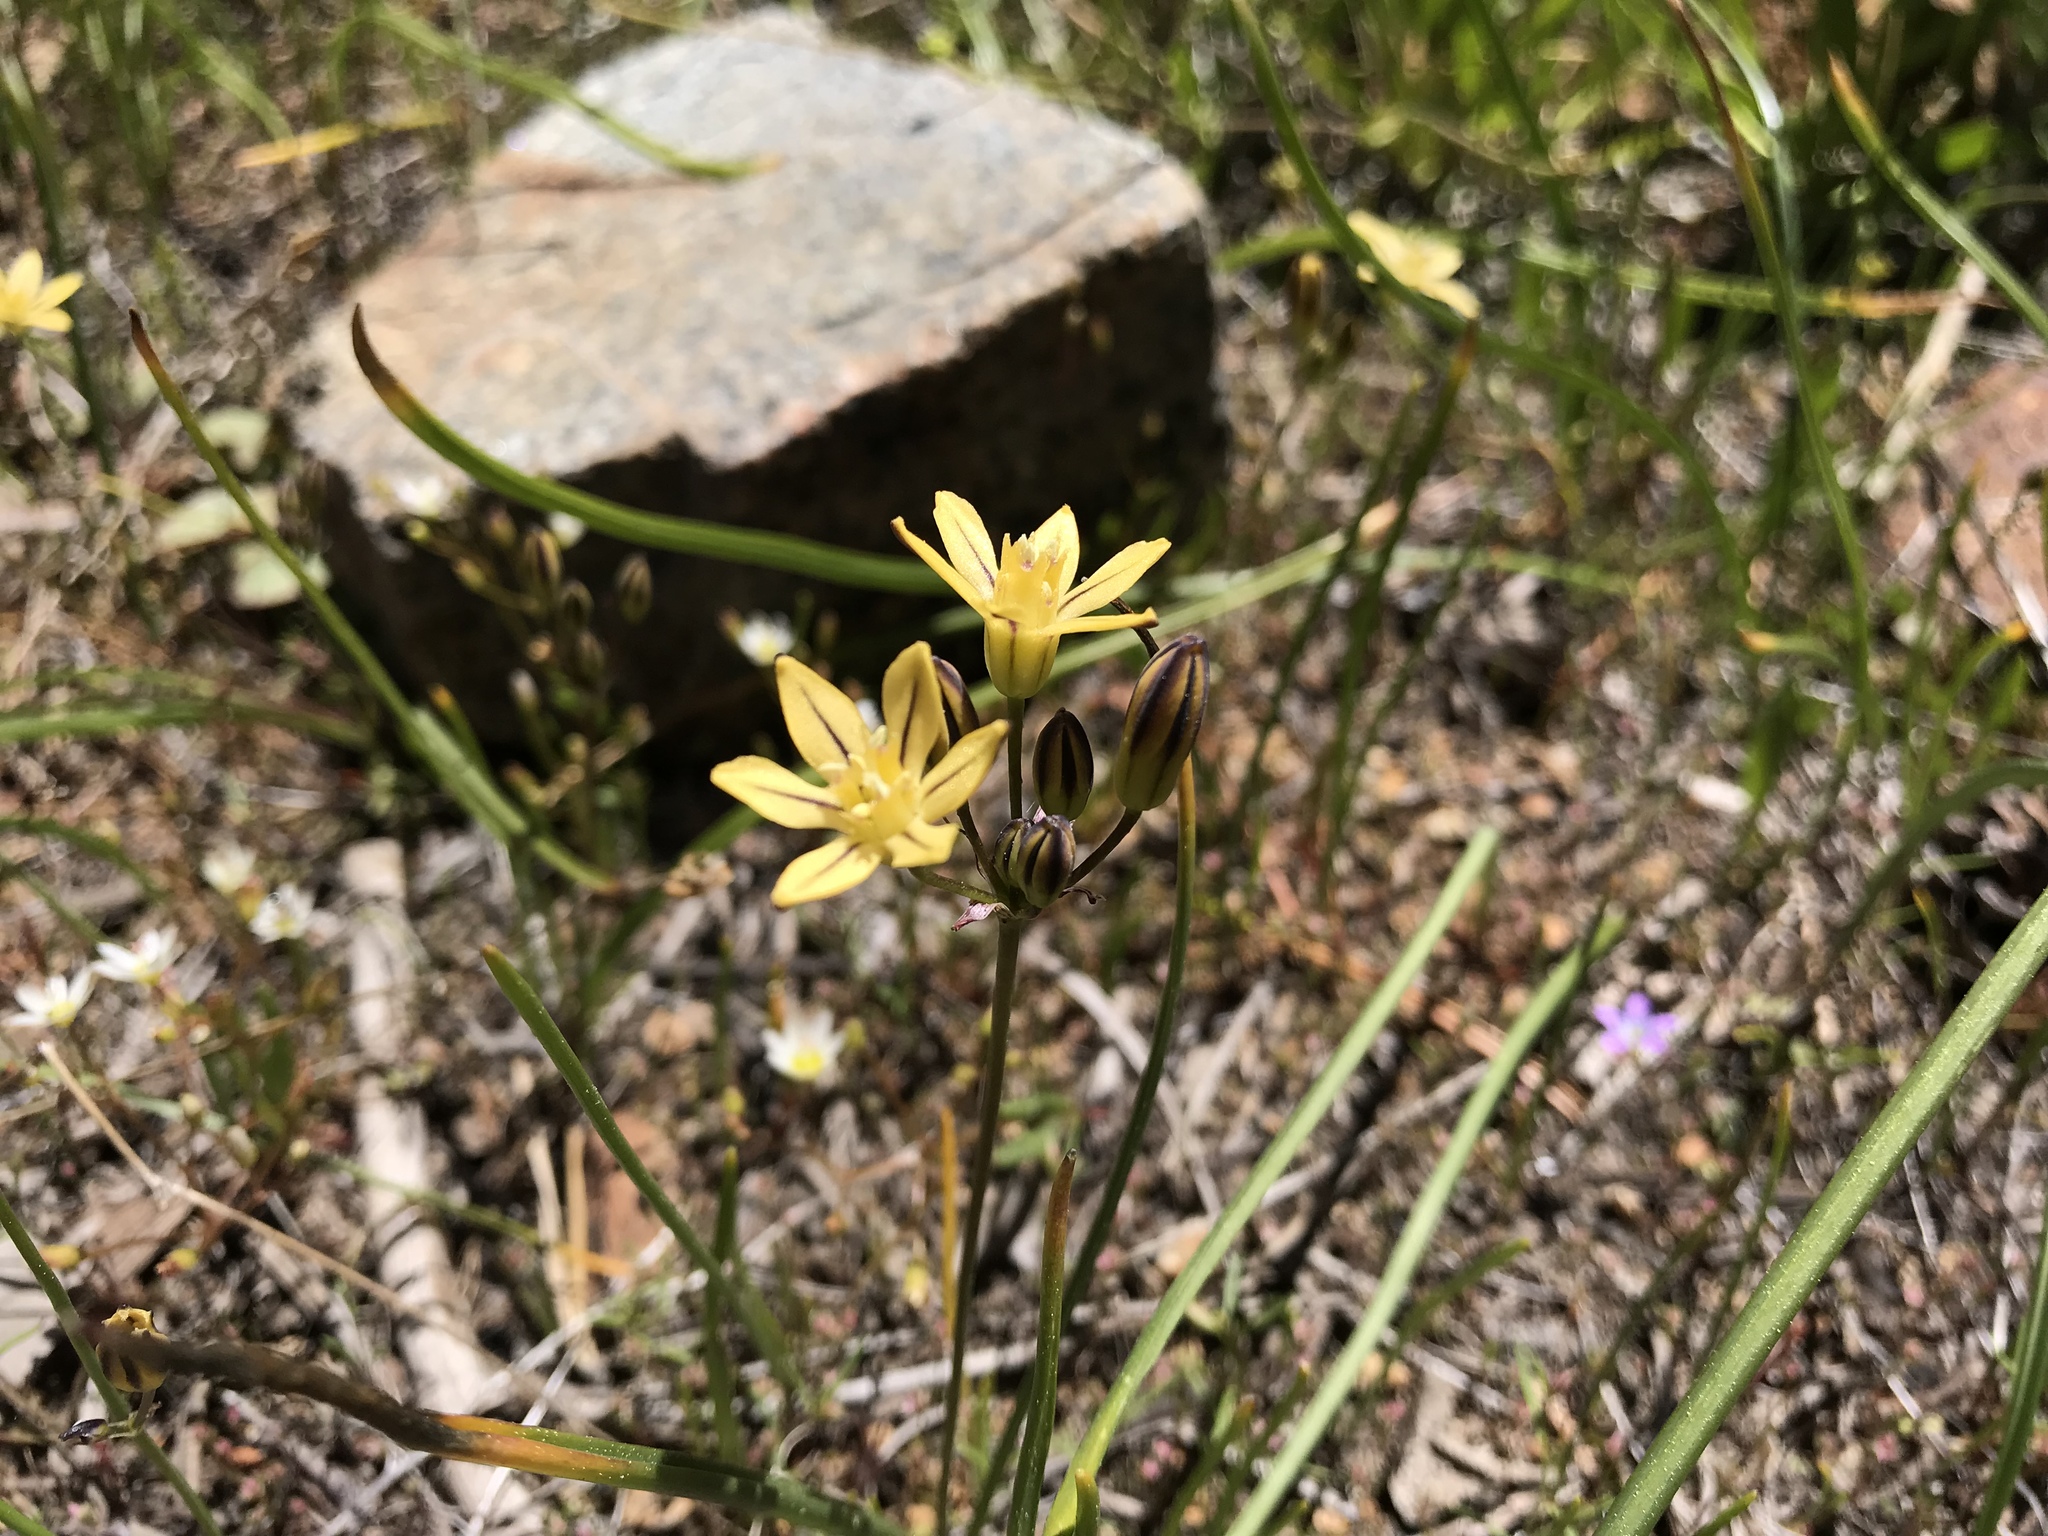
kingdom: Plantae
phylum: Tracheophyta
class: Liliopsida
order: Asparagales
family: Asparagaceae
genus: Triteleia
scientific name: Triteleia ixioides
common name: Yellow-brodiaea
